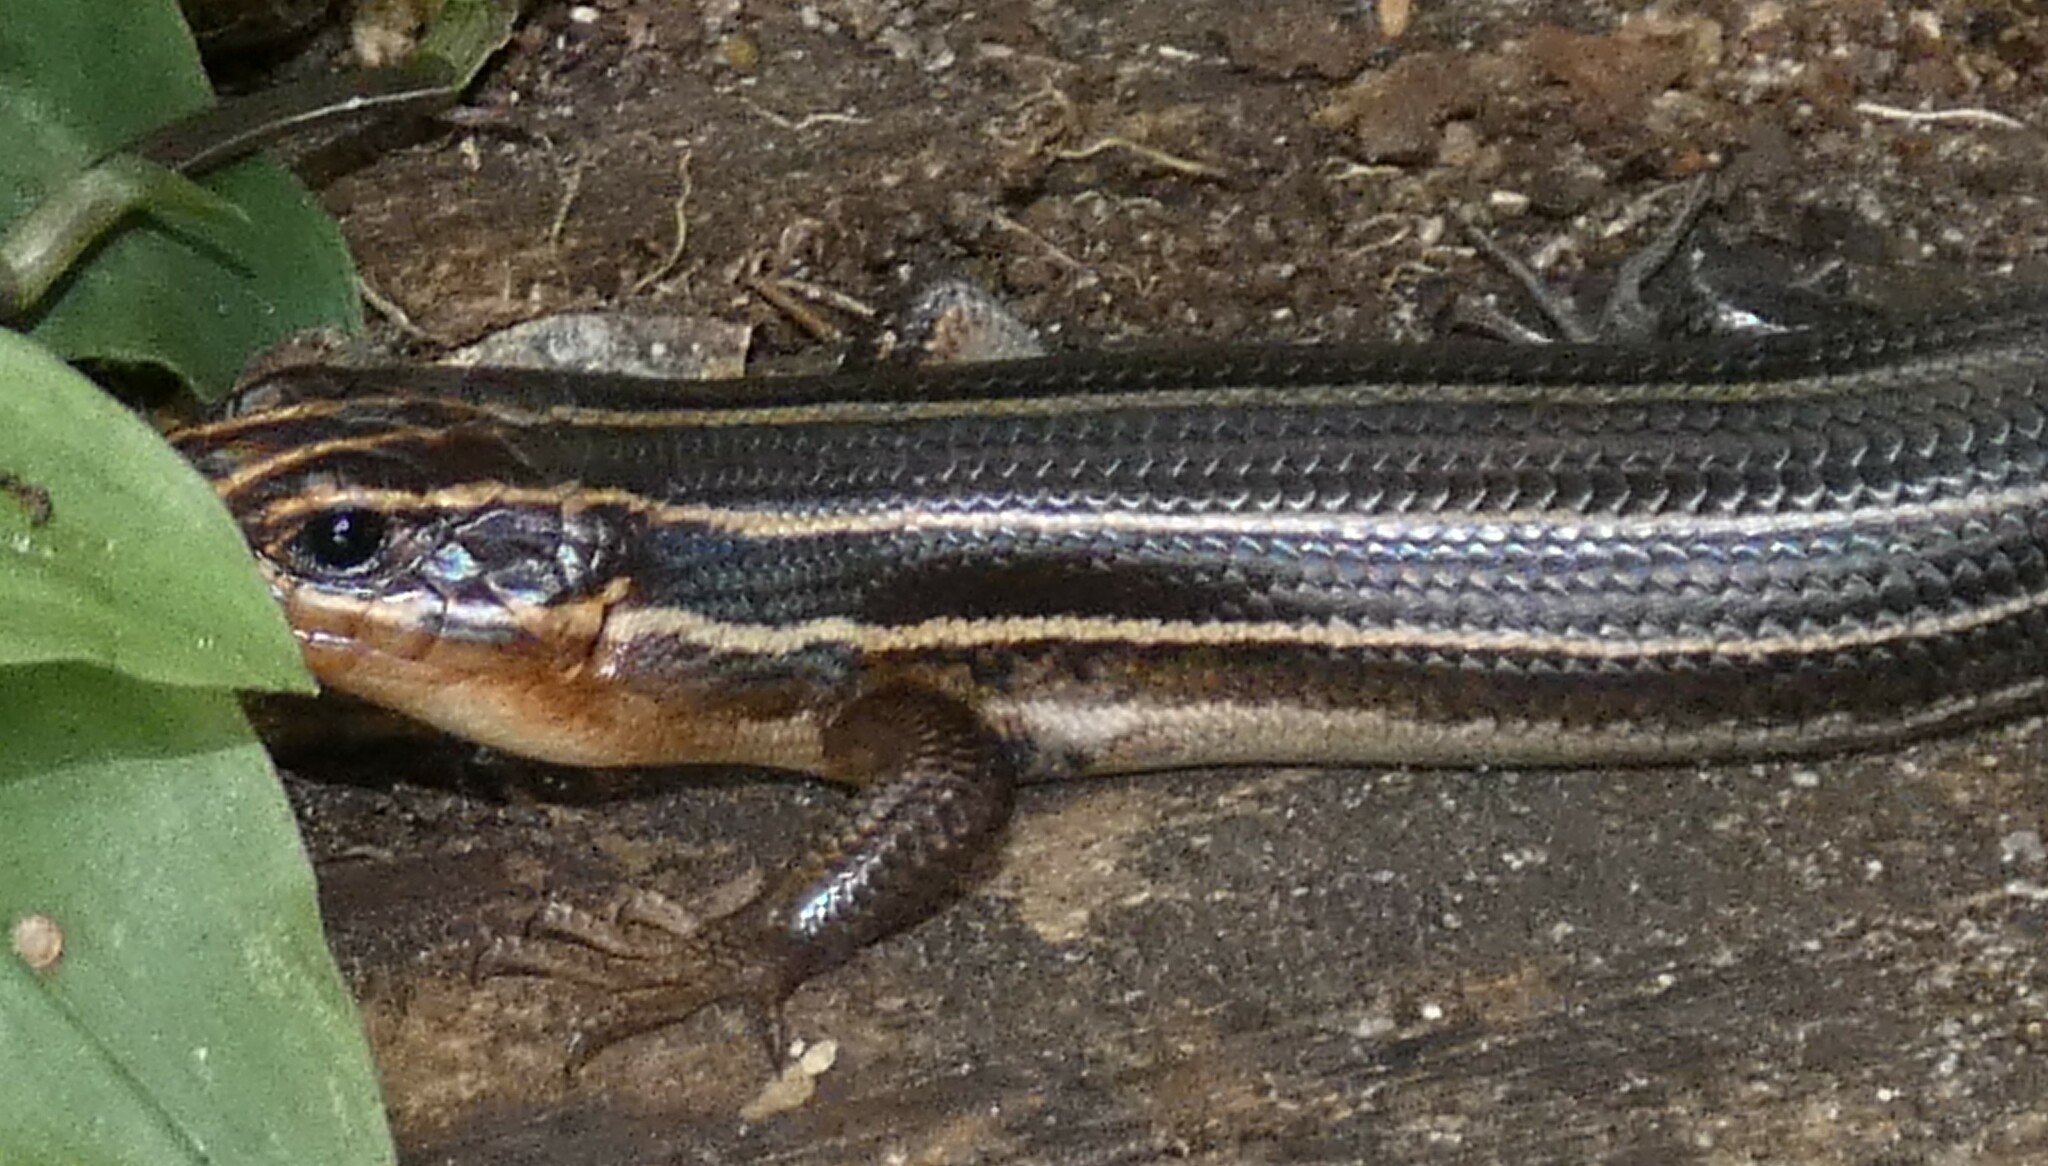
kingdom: Animalia
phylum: Chordata
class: Squamata
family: Scincidae
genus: Plestiodon
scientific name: Plestiodon laticeps
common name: Broadhead skink
